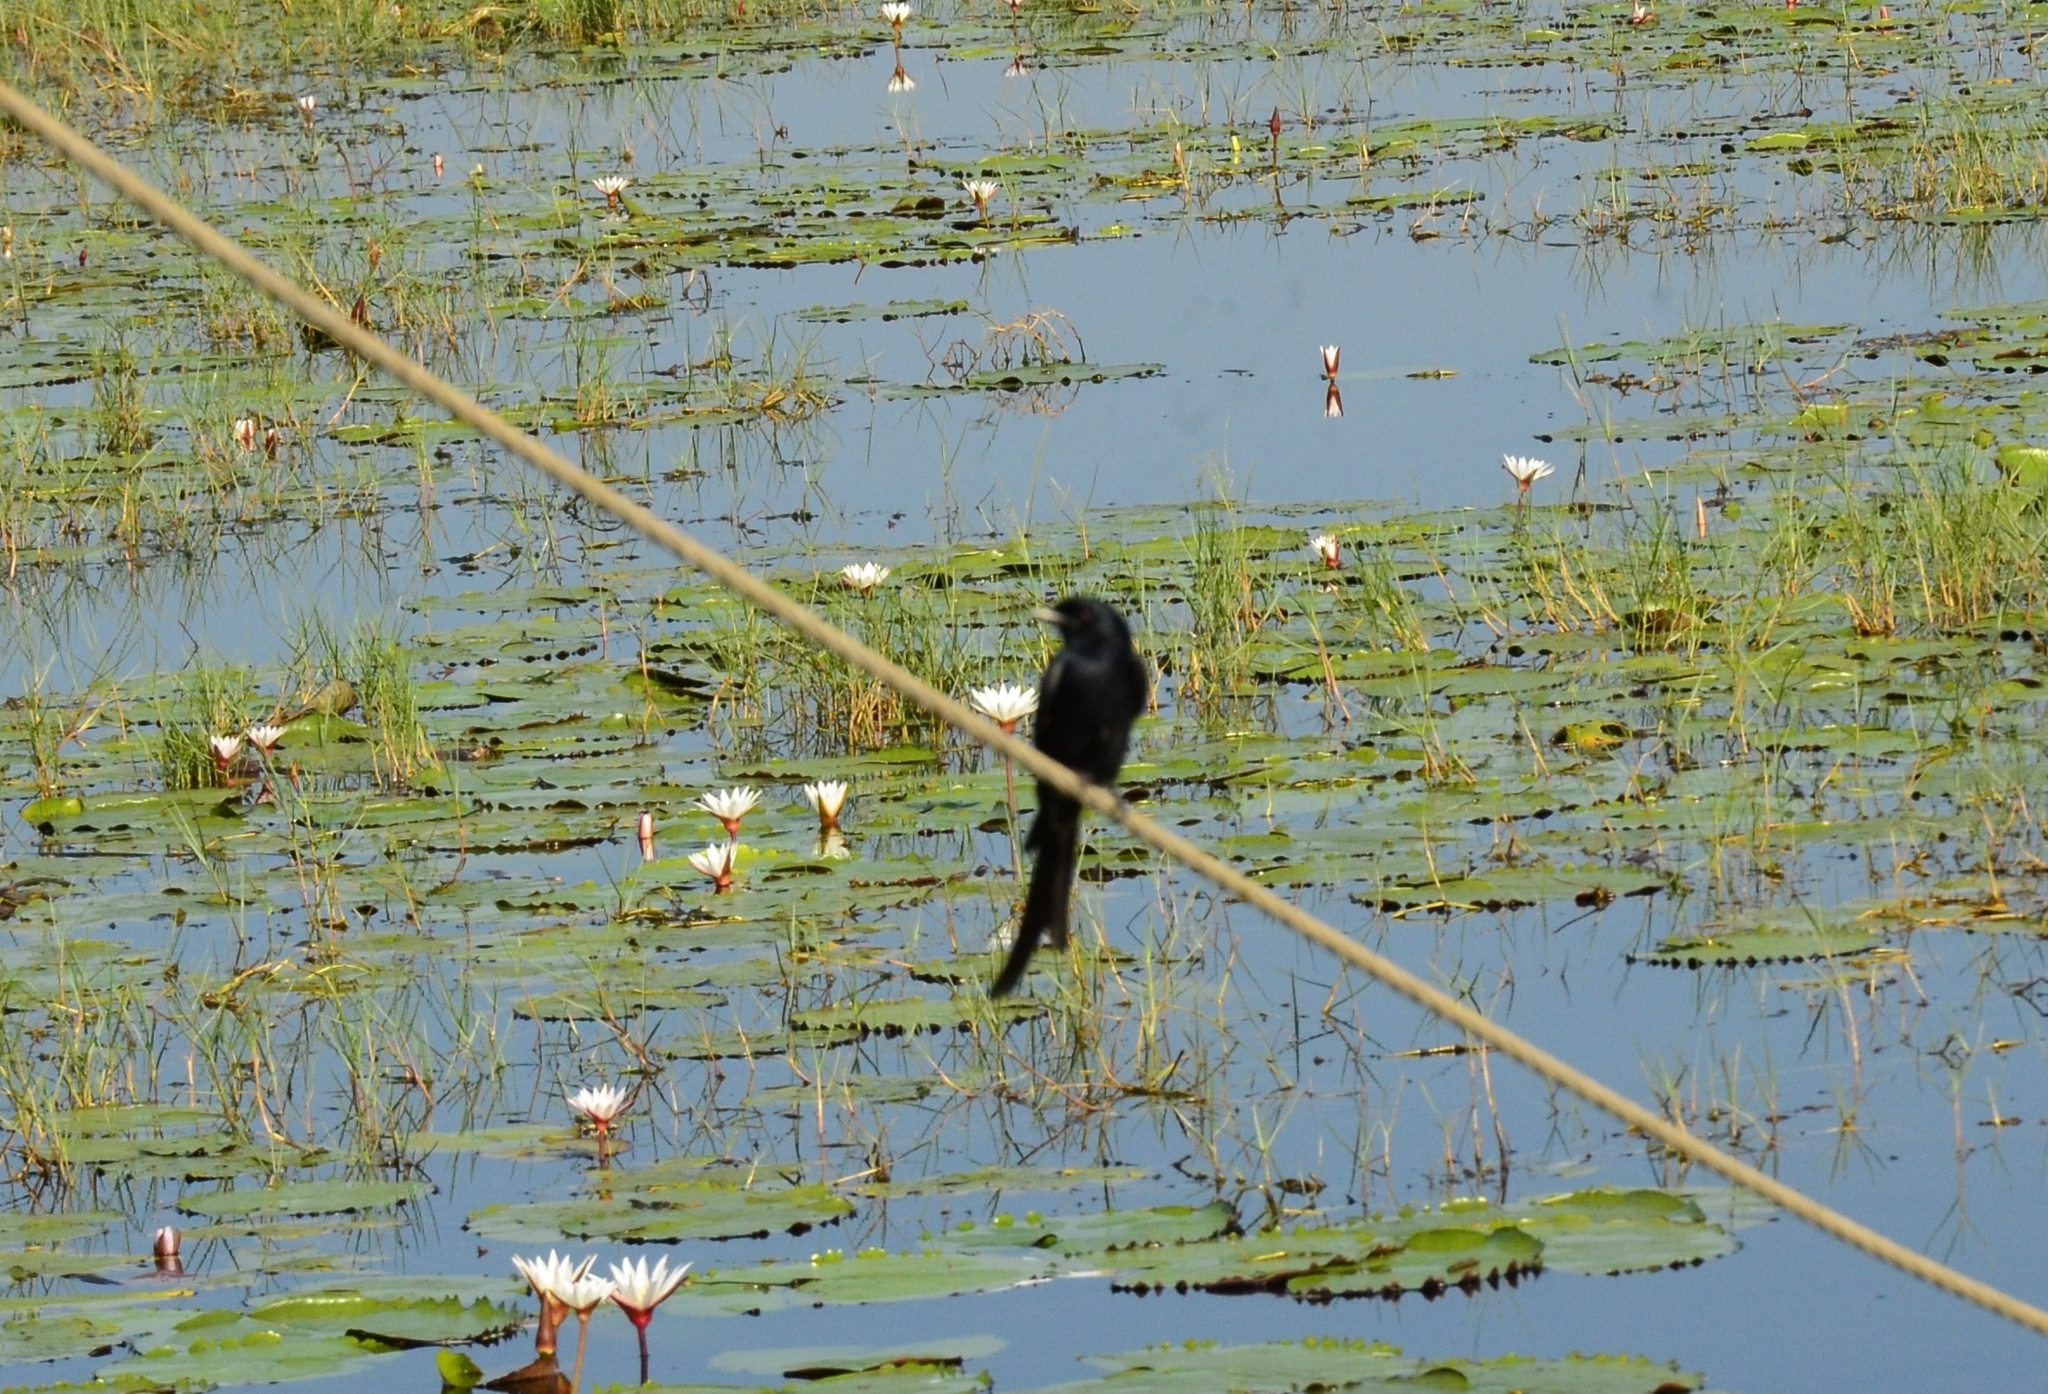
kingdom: Animalia
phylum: Chordata
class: Aves
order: Passeriformes
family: Dicruridae
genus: Dicrurus
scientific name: Dicrurus macrocercus
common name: Black drongo
